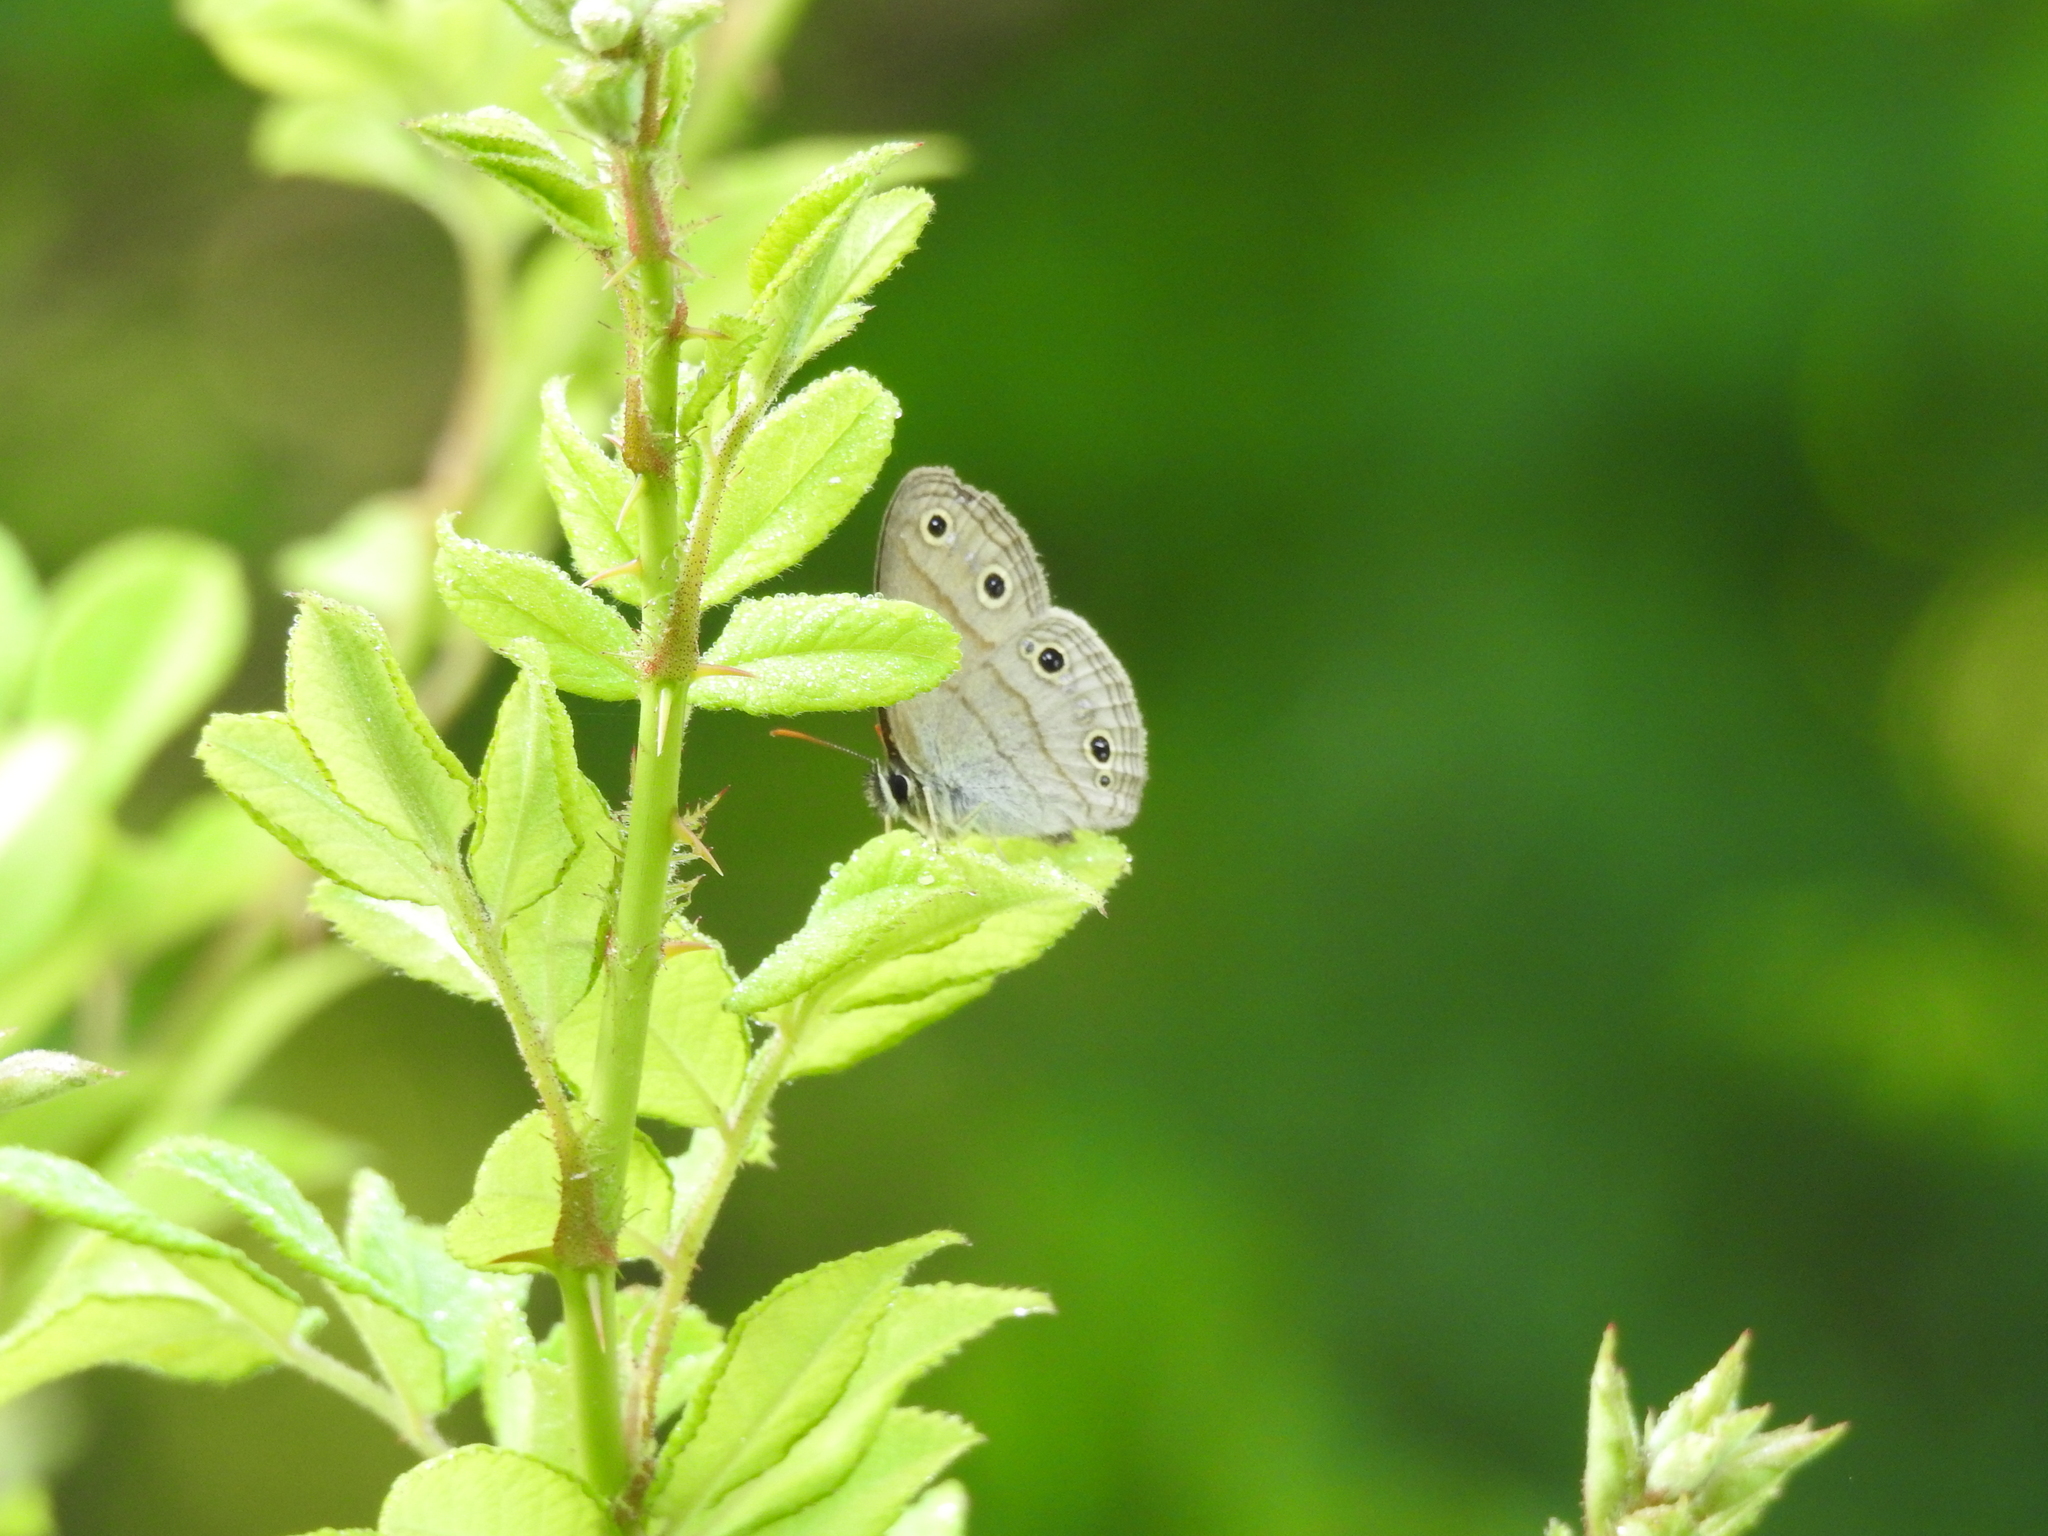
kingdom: Animalia
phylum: Arthropoda
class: Insecta
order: Lepidoptera
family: Nymphalidae
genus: Euptychia
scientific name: Euptychia cymela
